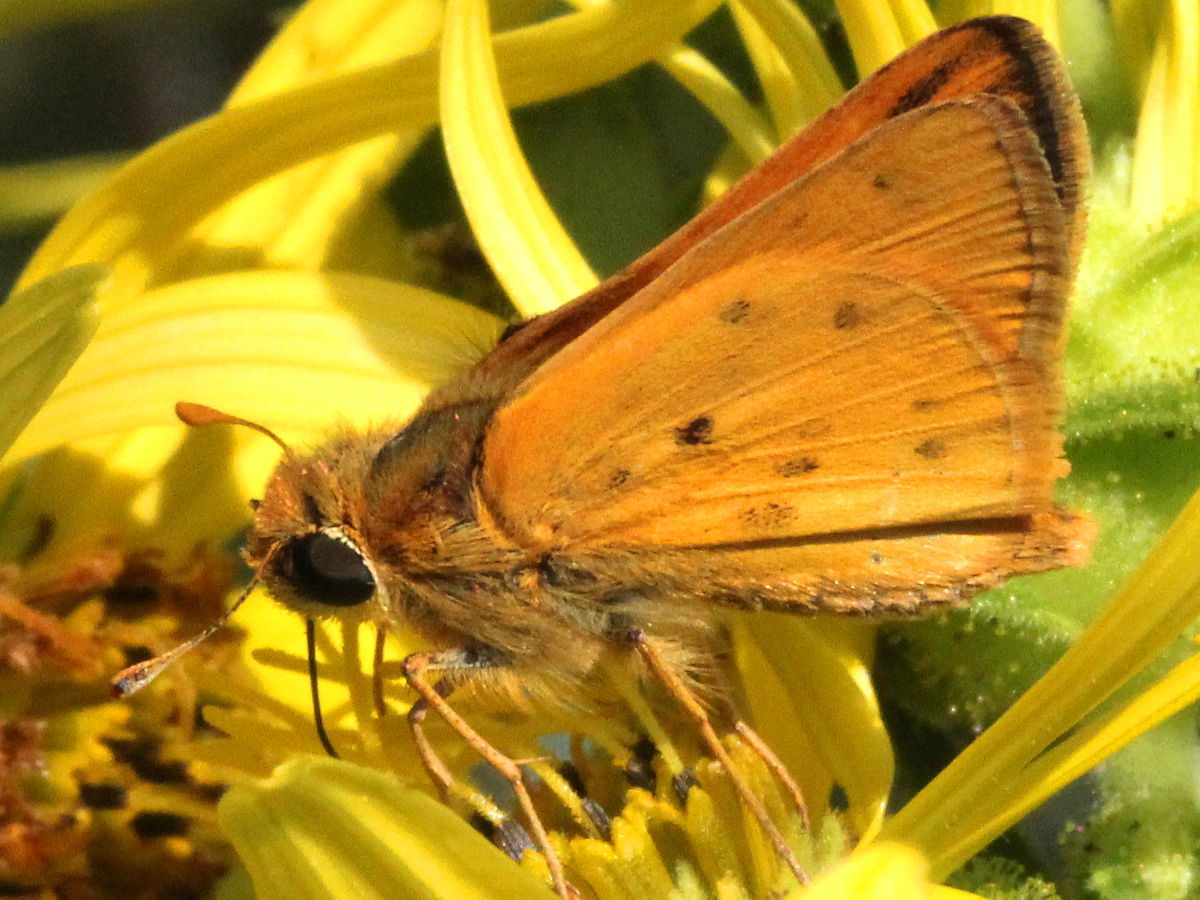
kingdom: Animalia
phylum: Arthropoda
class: Insecta
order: Lepidoptera
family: Hesperiidae
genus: Hylephila
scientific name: Hylephila phyleus
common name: Fiery skipper
